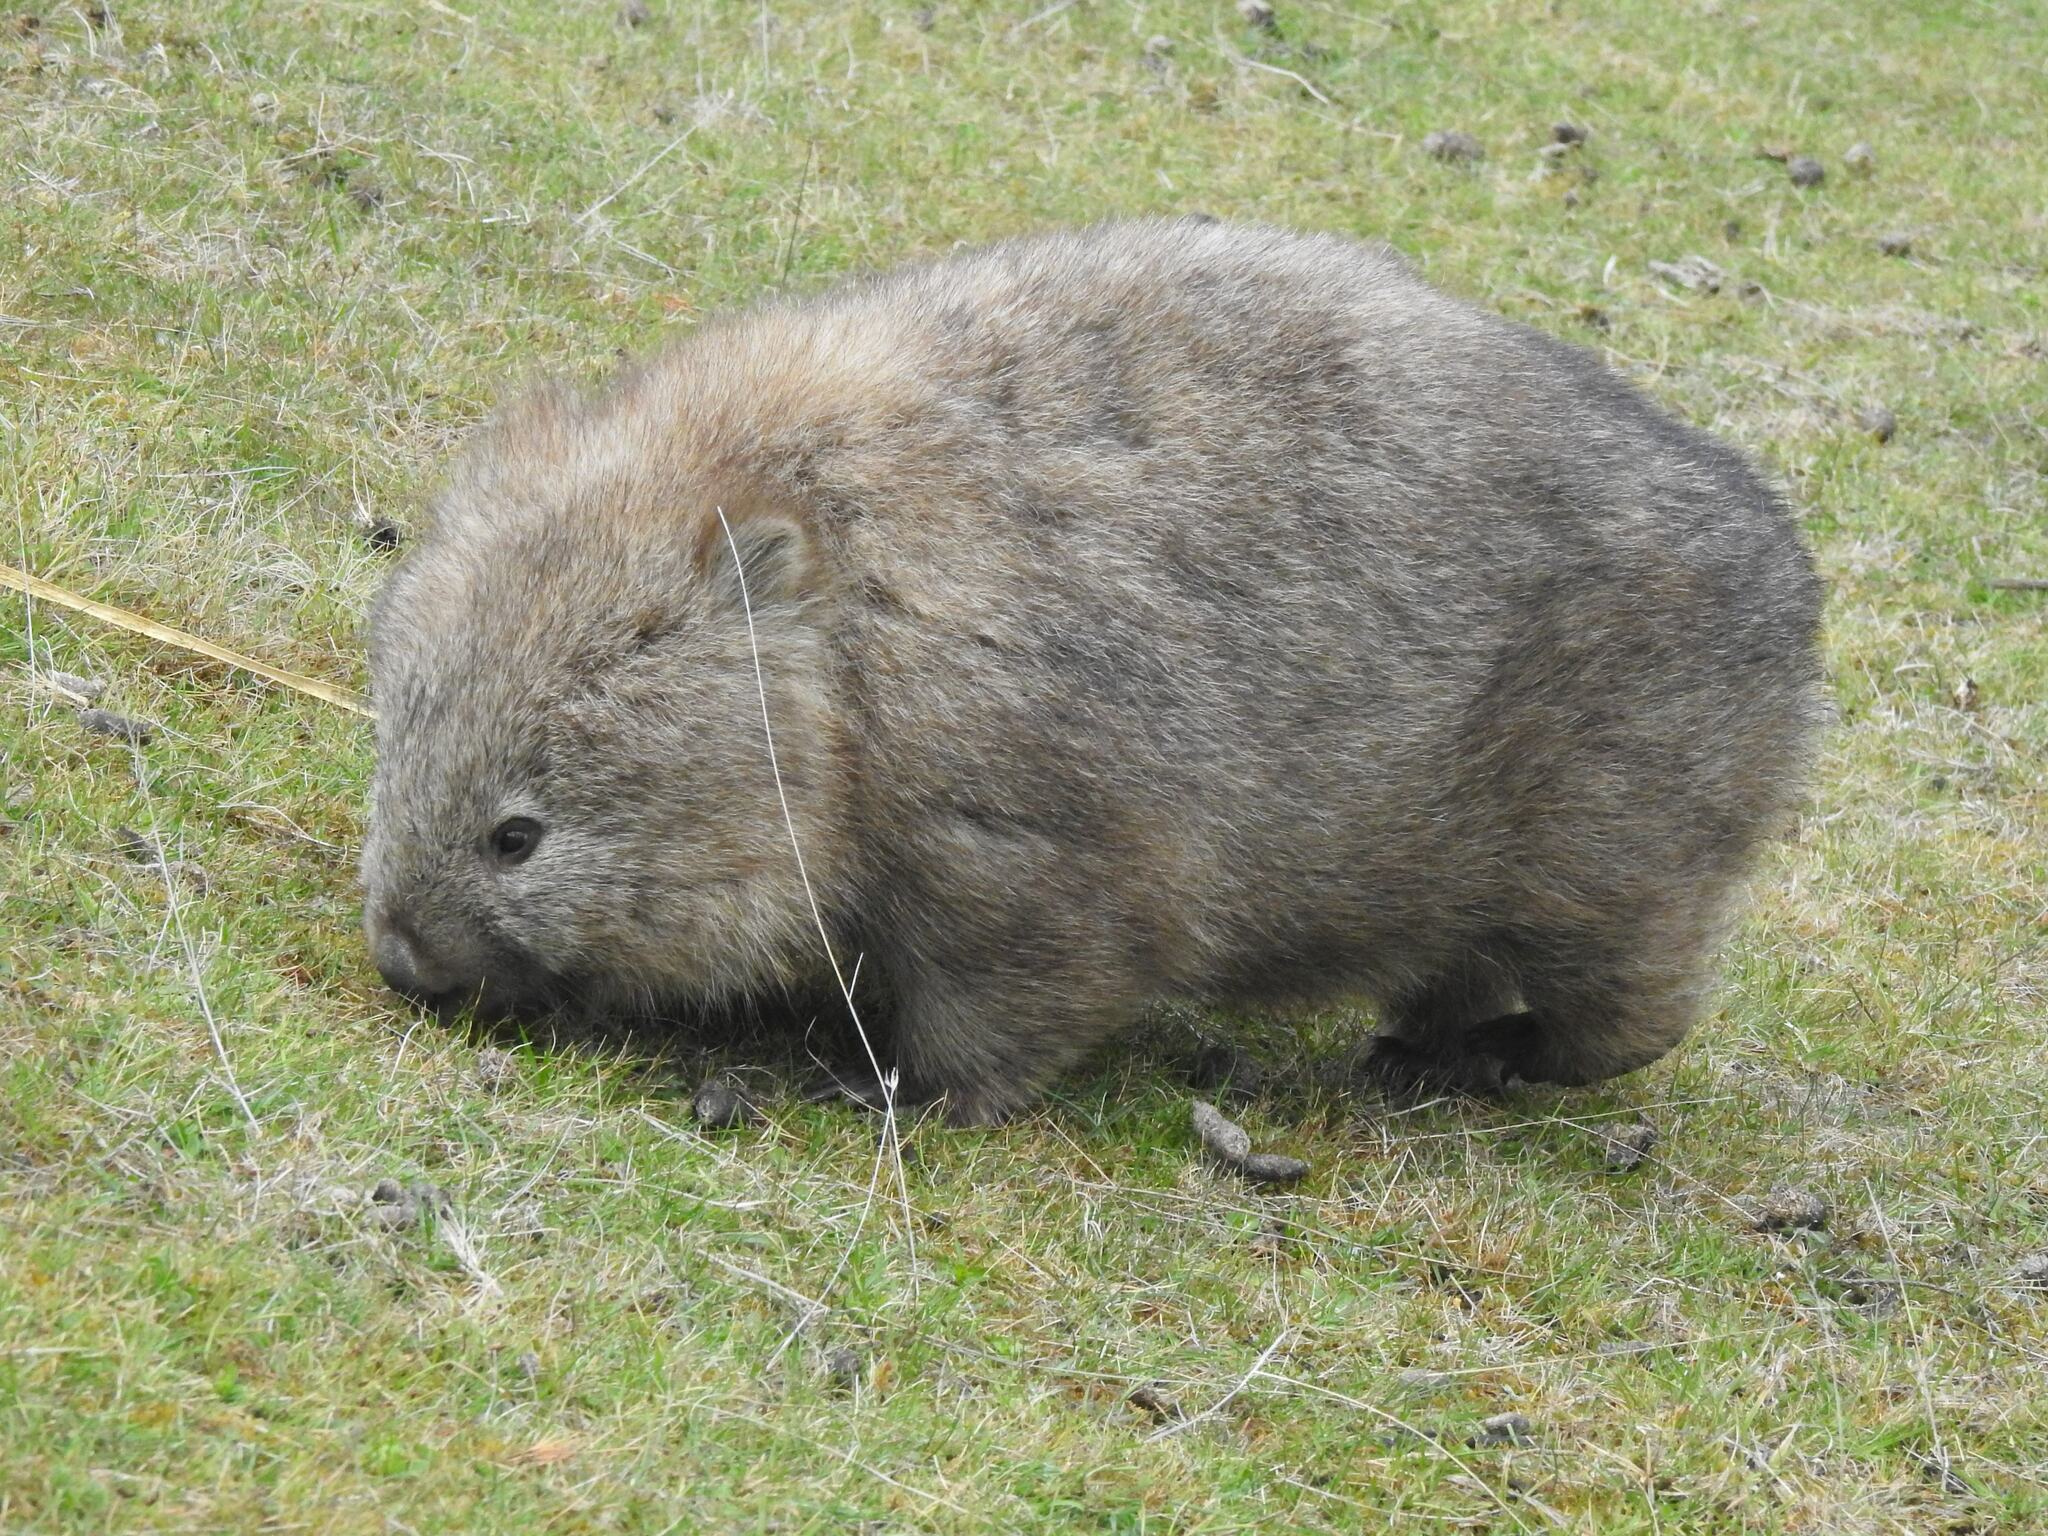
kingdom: Animalia
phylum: Chordata
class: Mammalia
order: Diprotodontia
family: Vombatidae
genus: Vombatus
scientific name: Vombatus ursinus
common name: Common wombat
